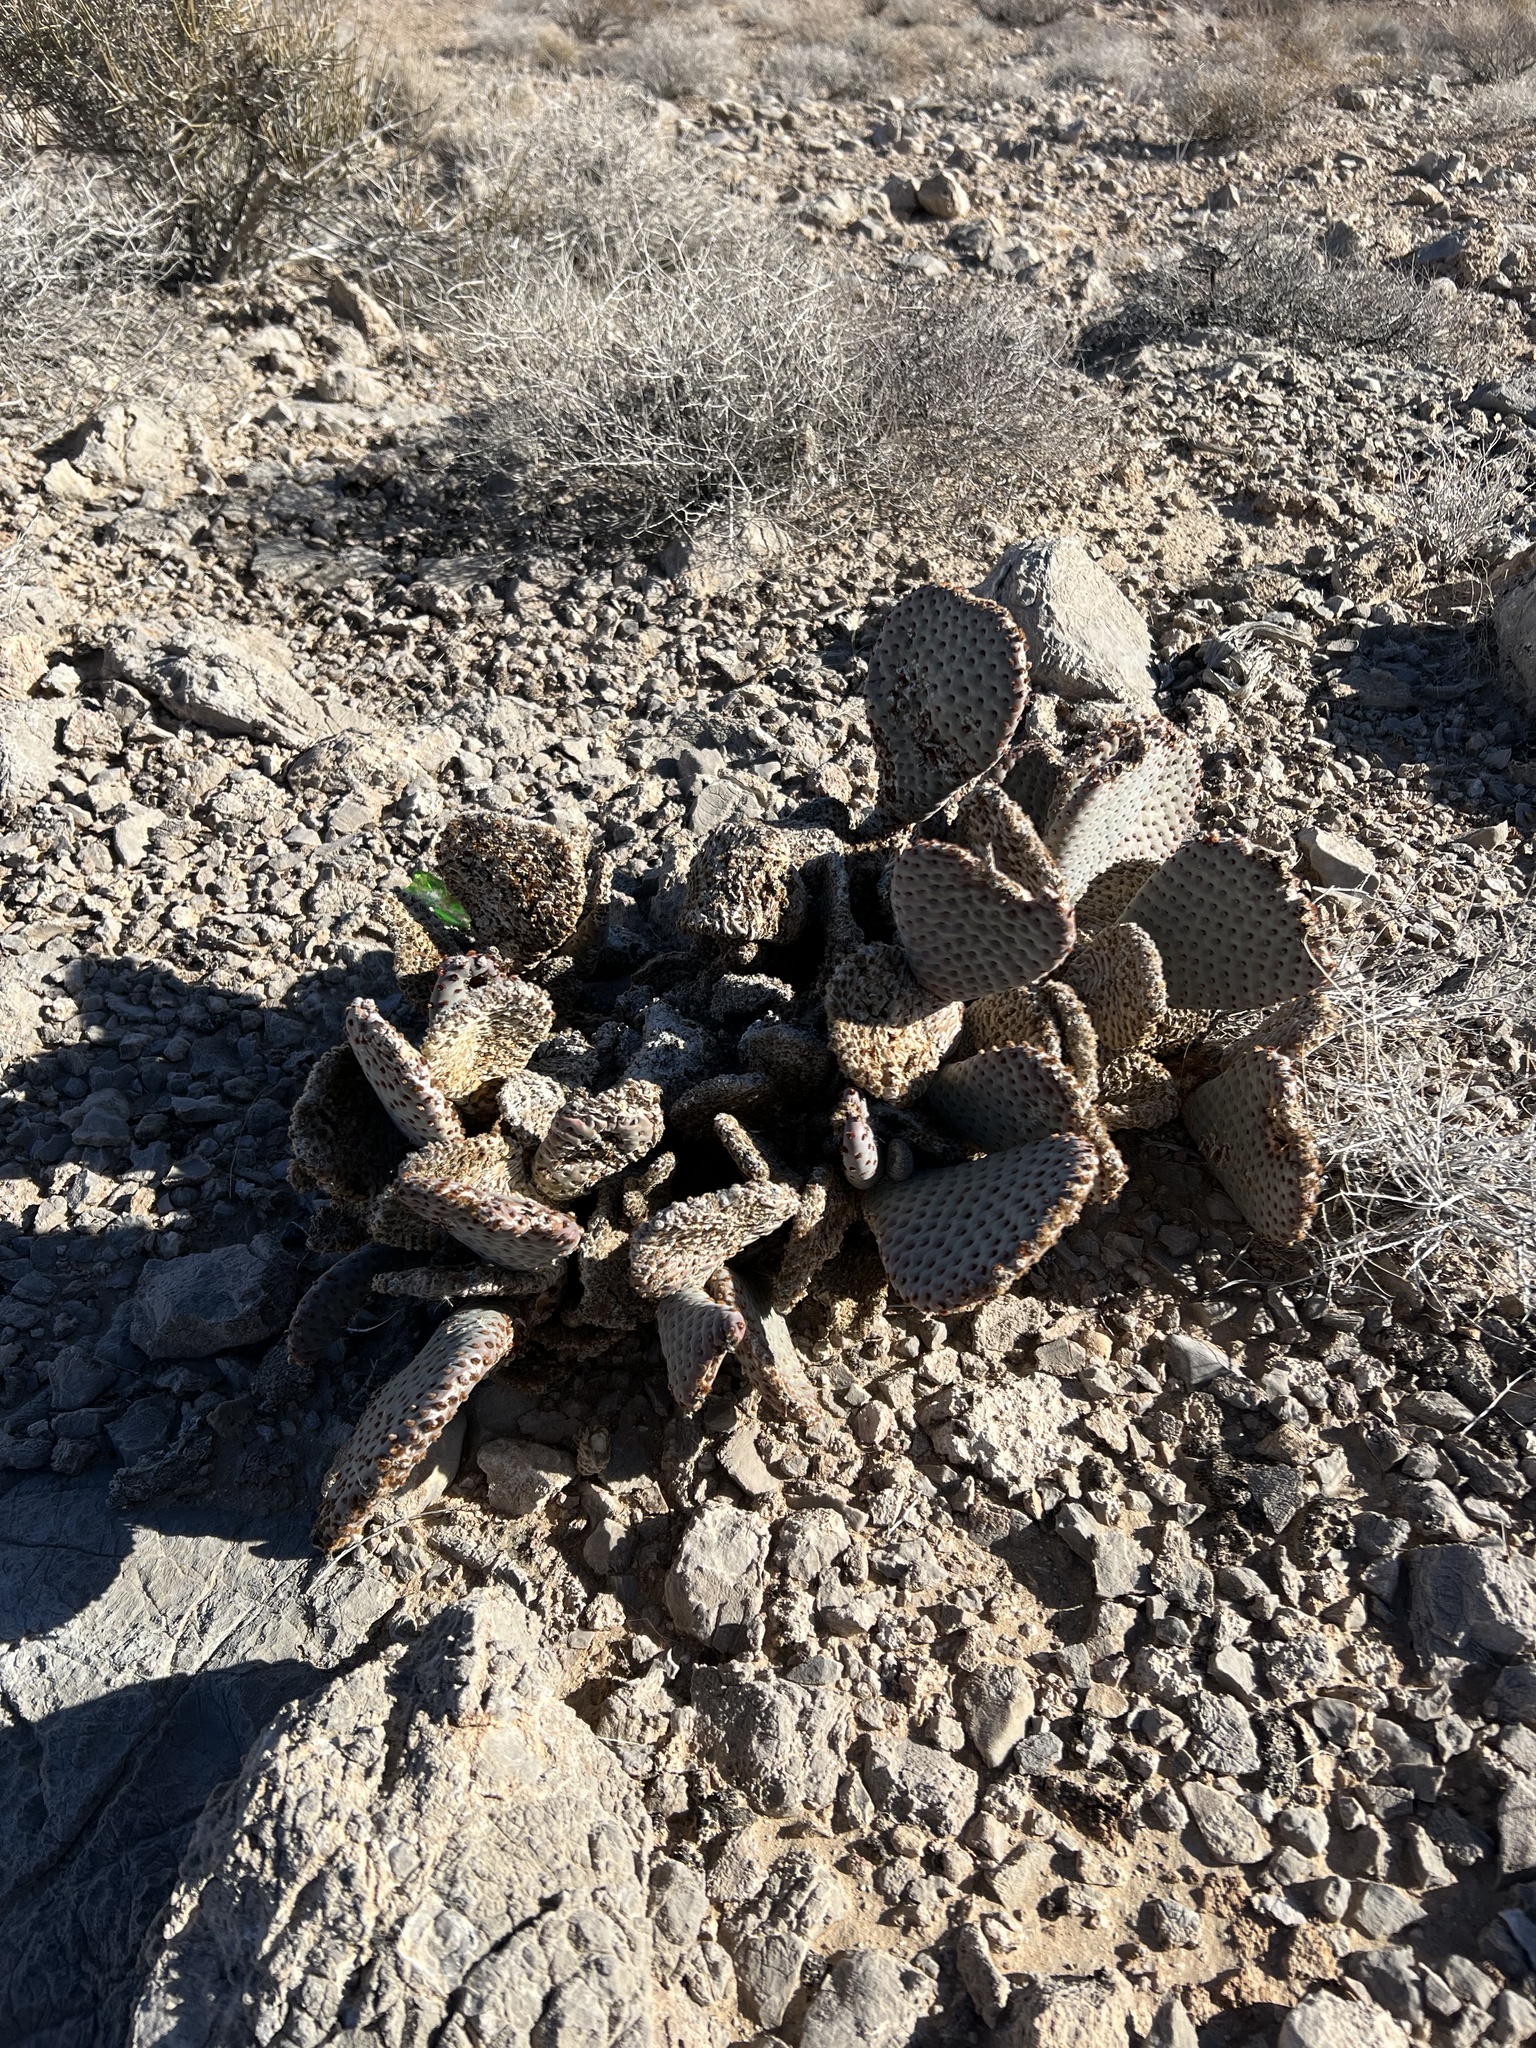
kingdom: Plantae
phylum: Tracheophyta
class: Magnoliopsida
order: Caryophyllales
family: Cactaceae
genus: Opuntia
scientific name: Opuntia basilaris
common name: Beavertail prickly-pear
